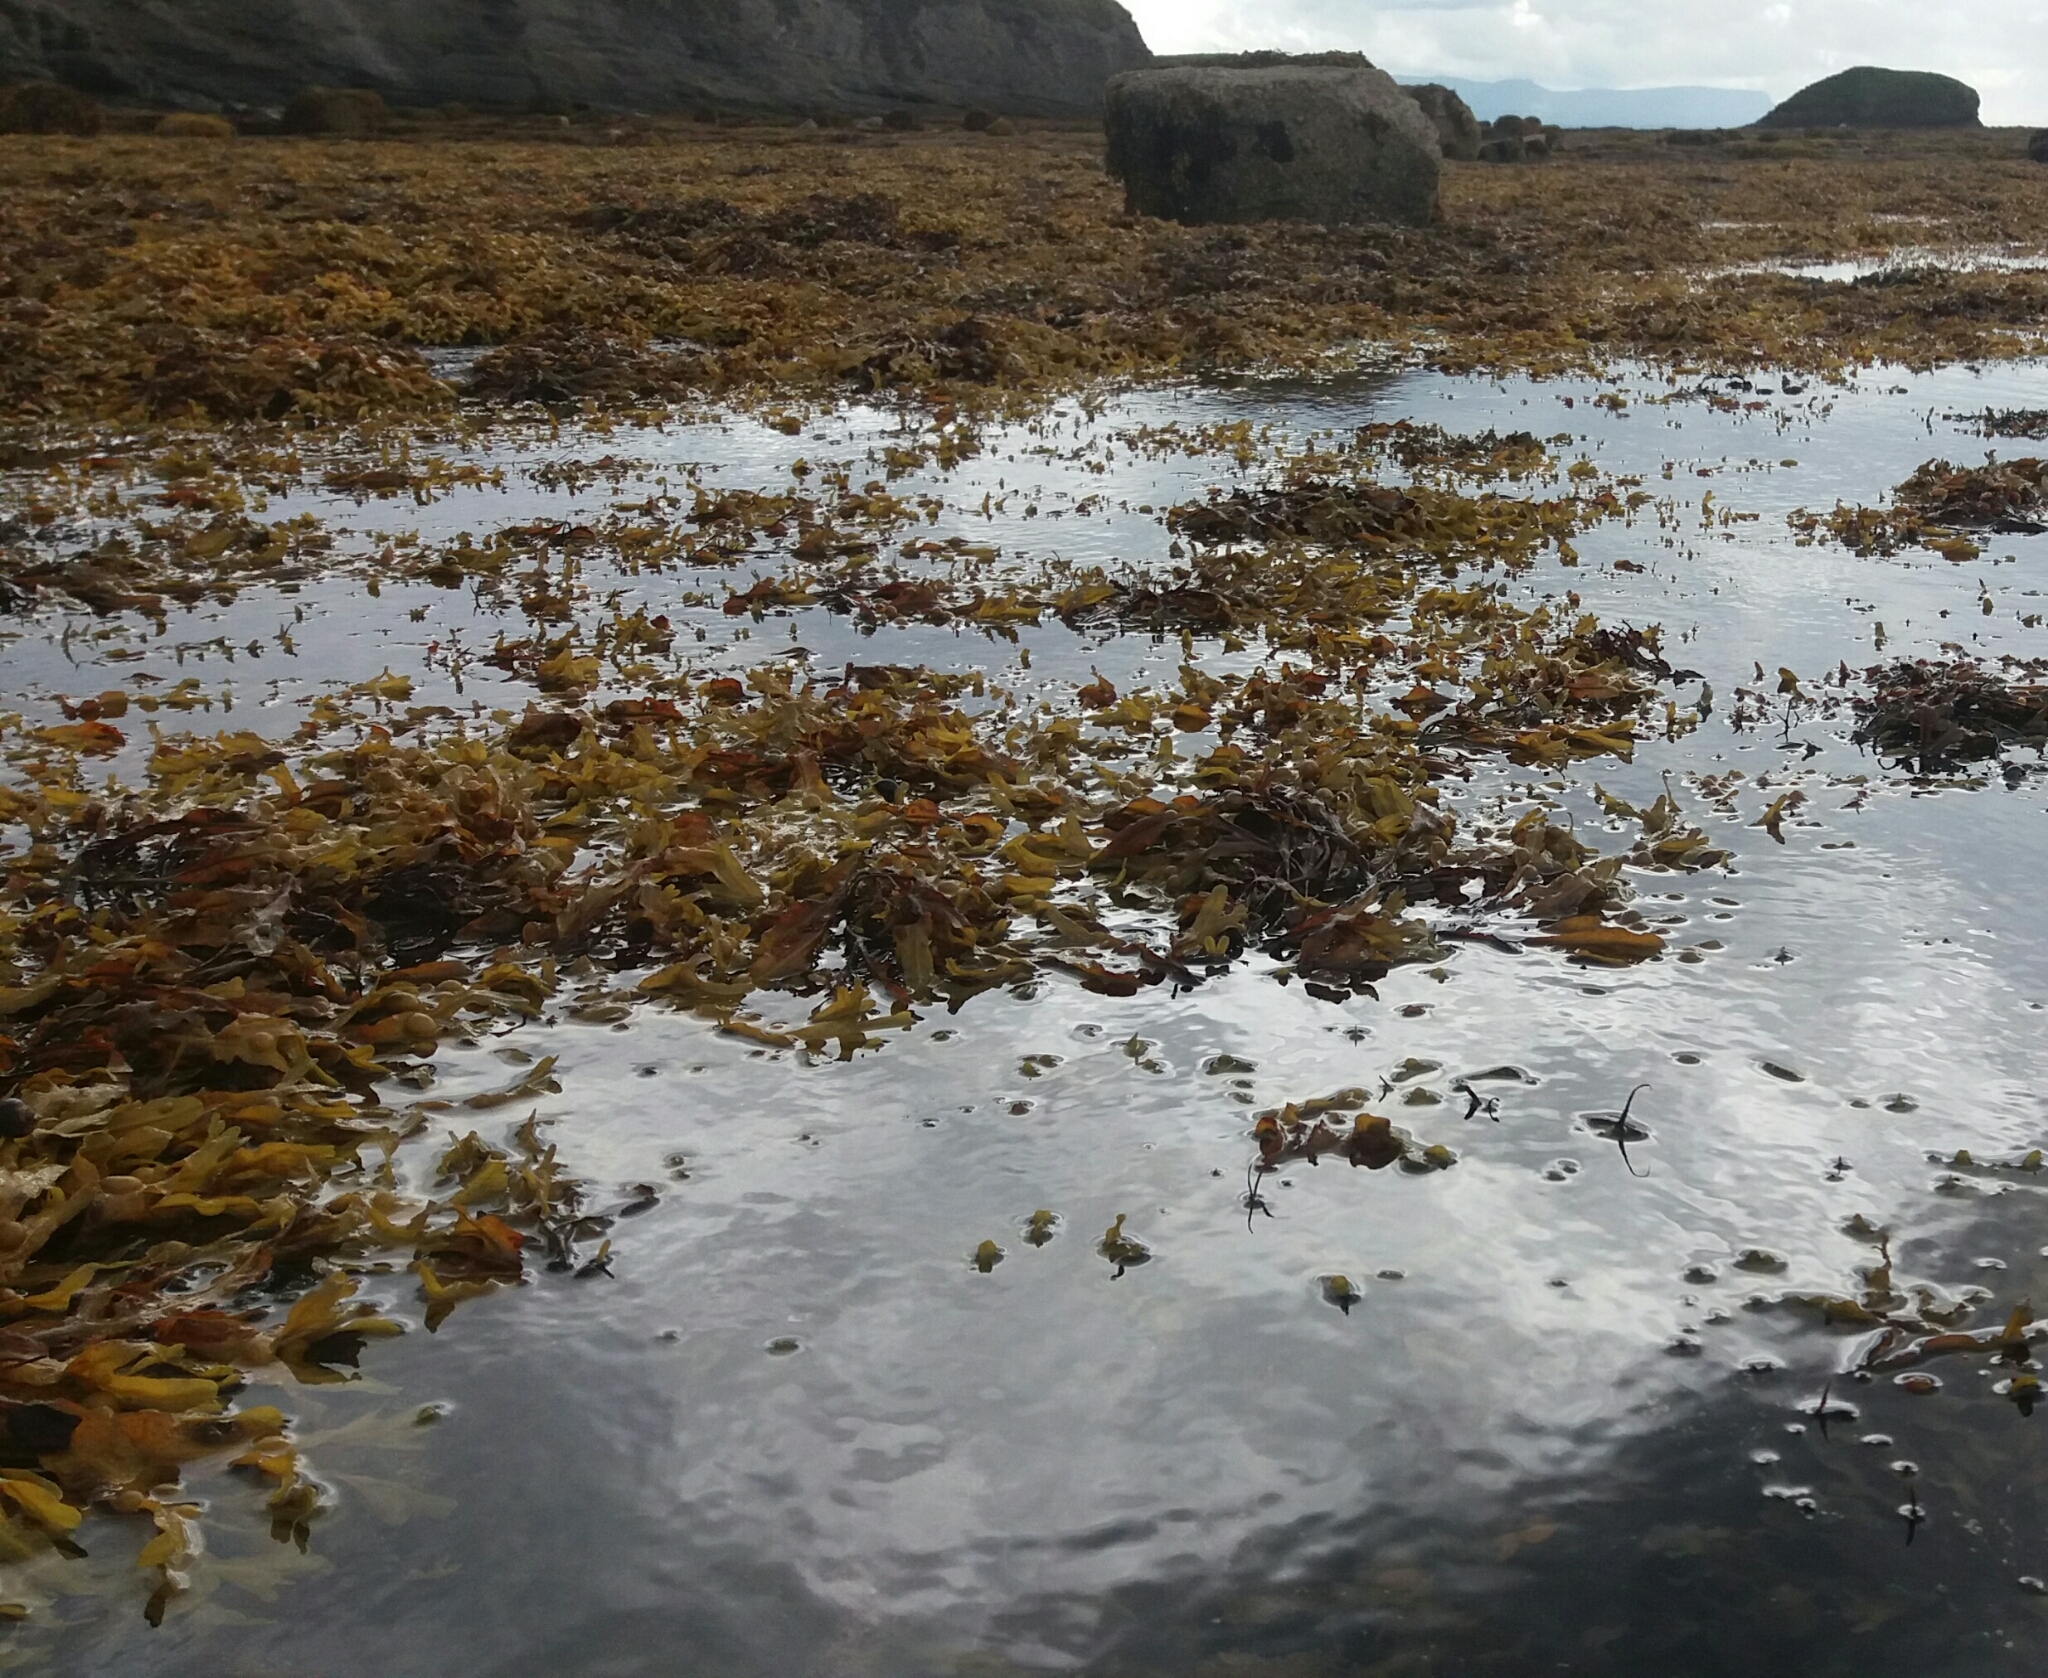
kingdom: Chromista
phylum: Ochrophyta
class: Phaeophyceae
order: Fucales
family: Fucaceae
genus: Fucus
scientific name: Fucus vesiculosus
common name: Bladder wrack
